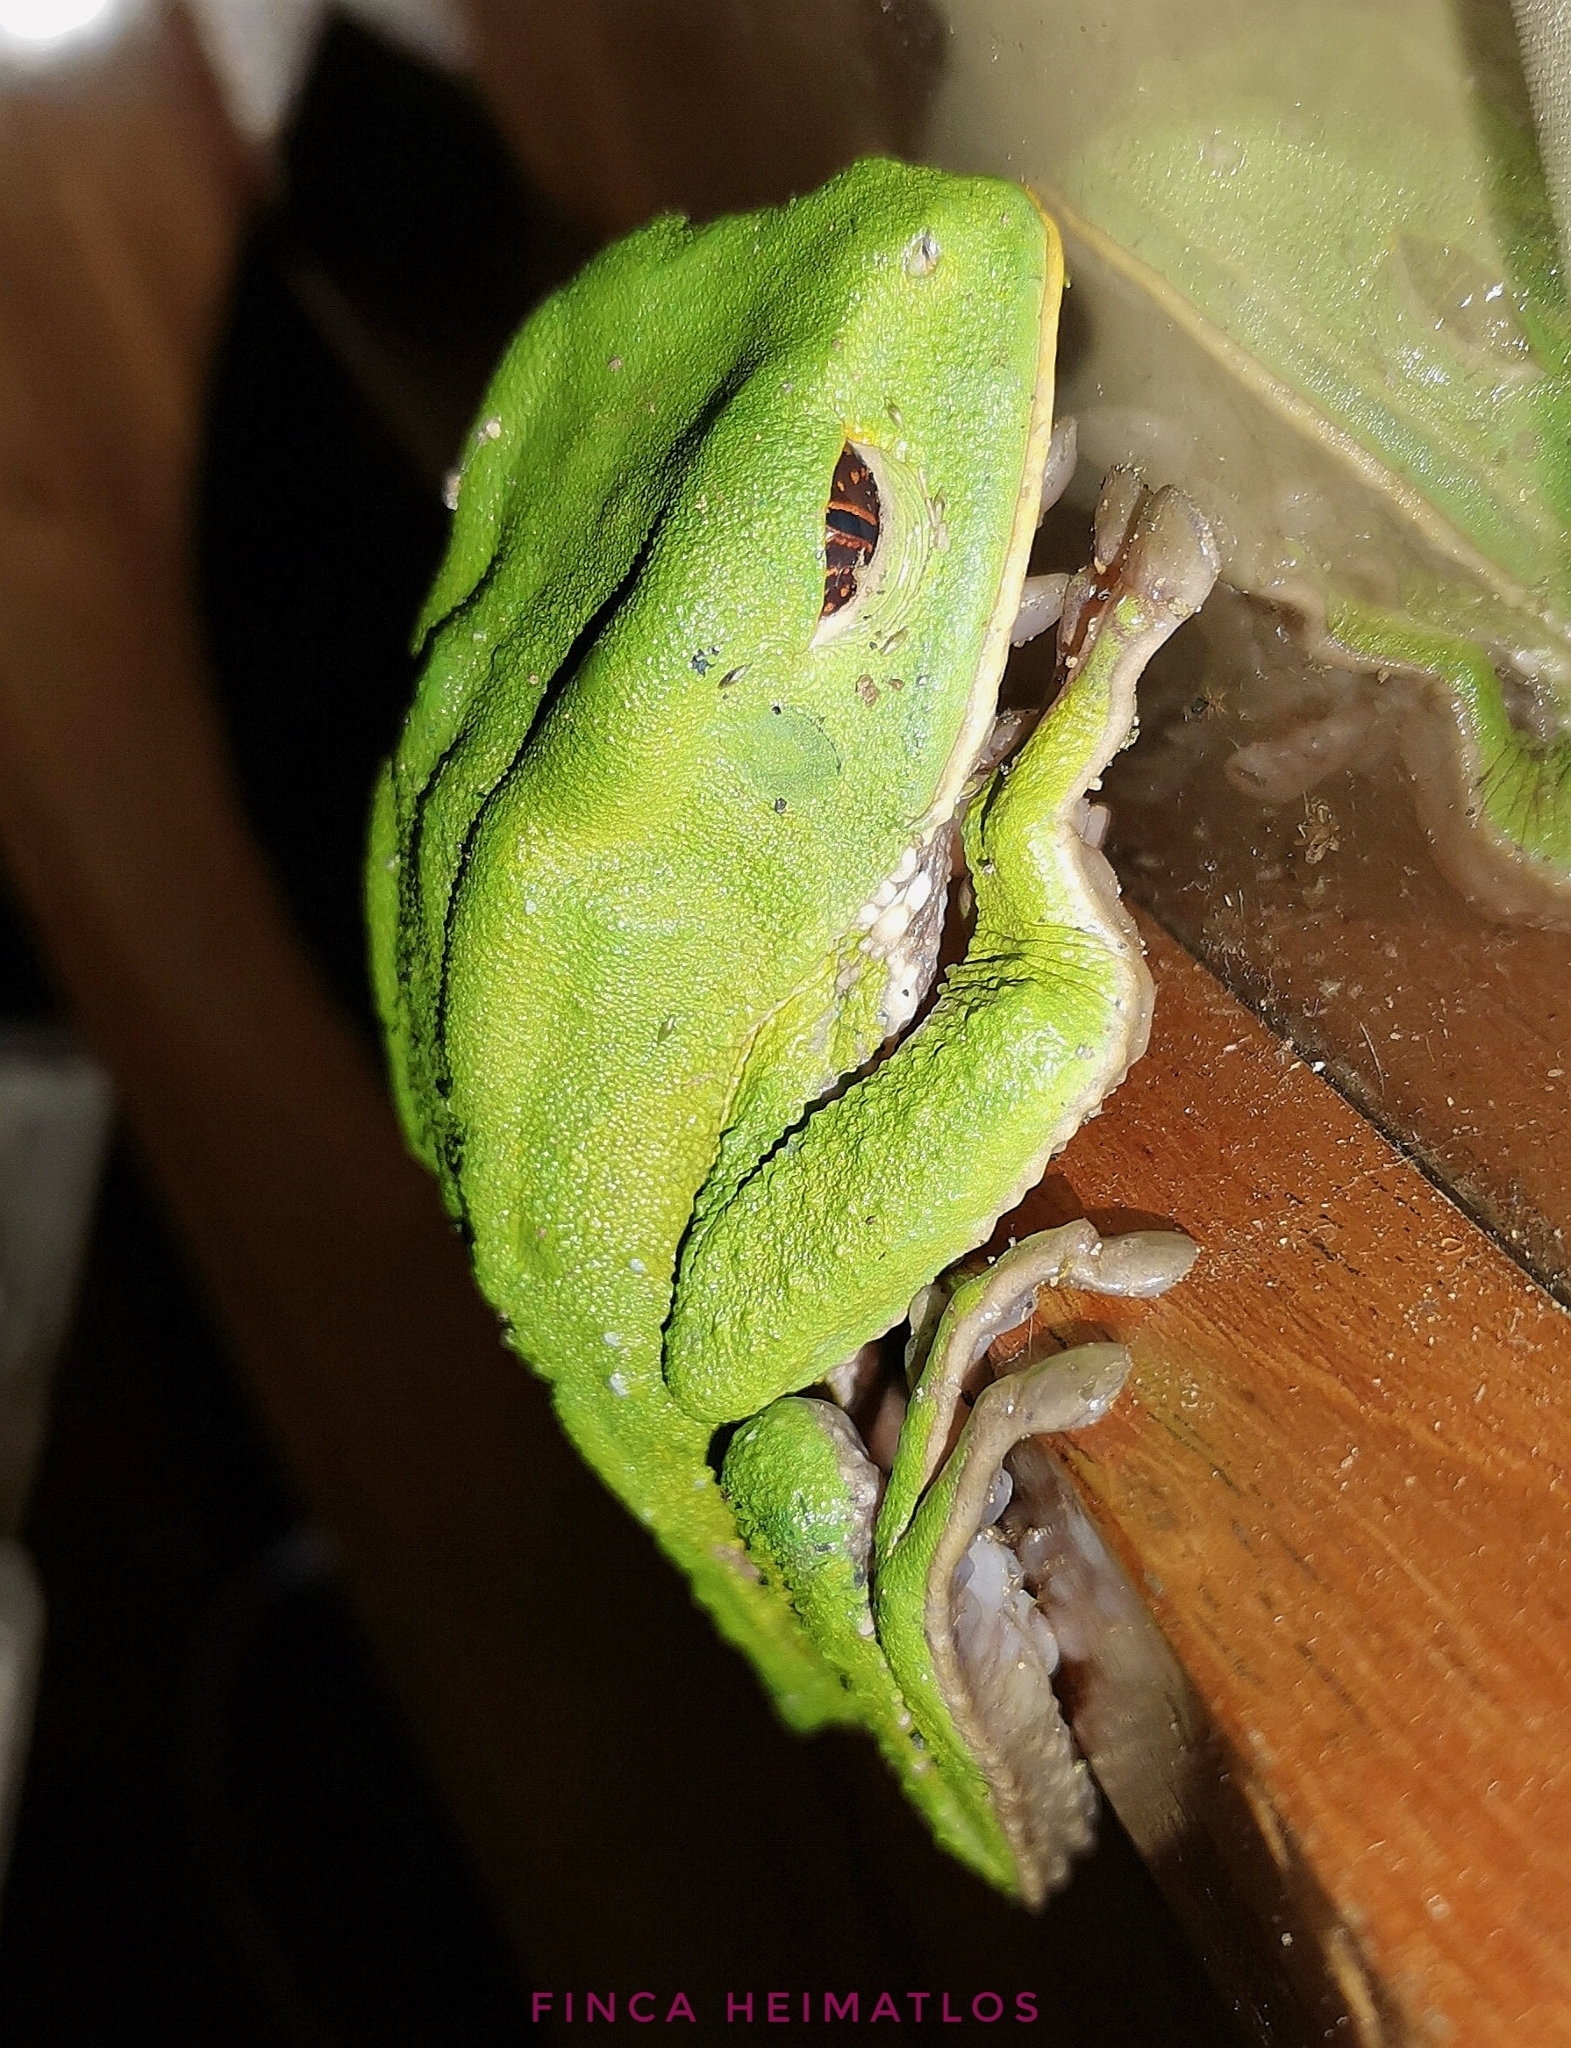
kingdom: Animalia
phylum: Chordata
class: Amphibia
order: Anura
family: Phyllomedusidae
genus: Phyllomedusa
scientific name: Phyllomedusa tarsius
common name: Brownbelly leaf frog
